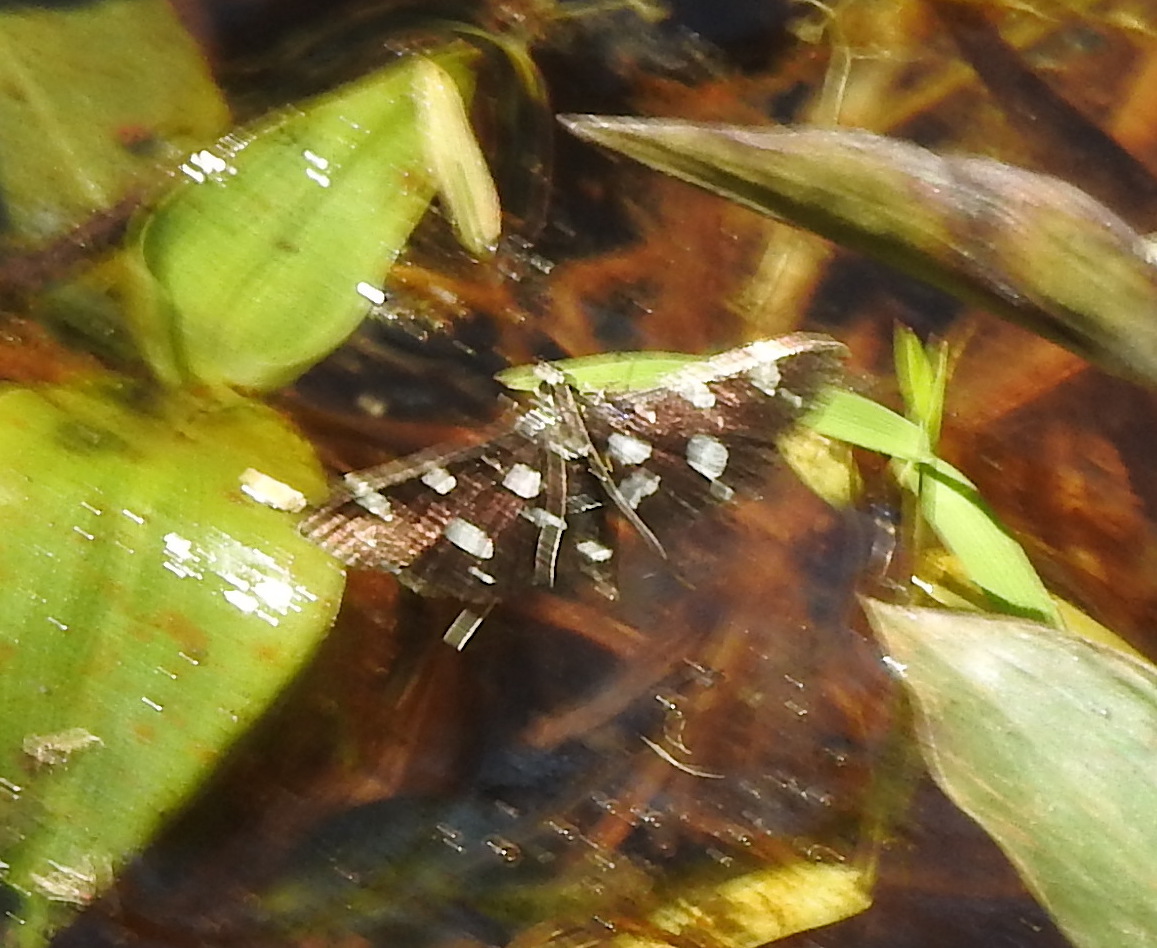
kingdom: Animalia
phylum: Arthropoda
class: Insecta
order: Lepidoptera
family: Crambidae
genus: Bocchoris
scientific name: Bocchoris inspersalis
